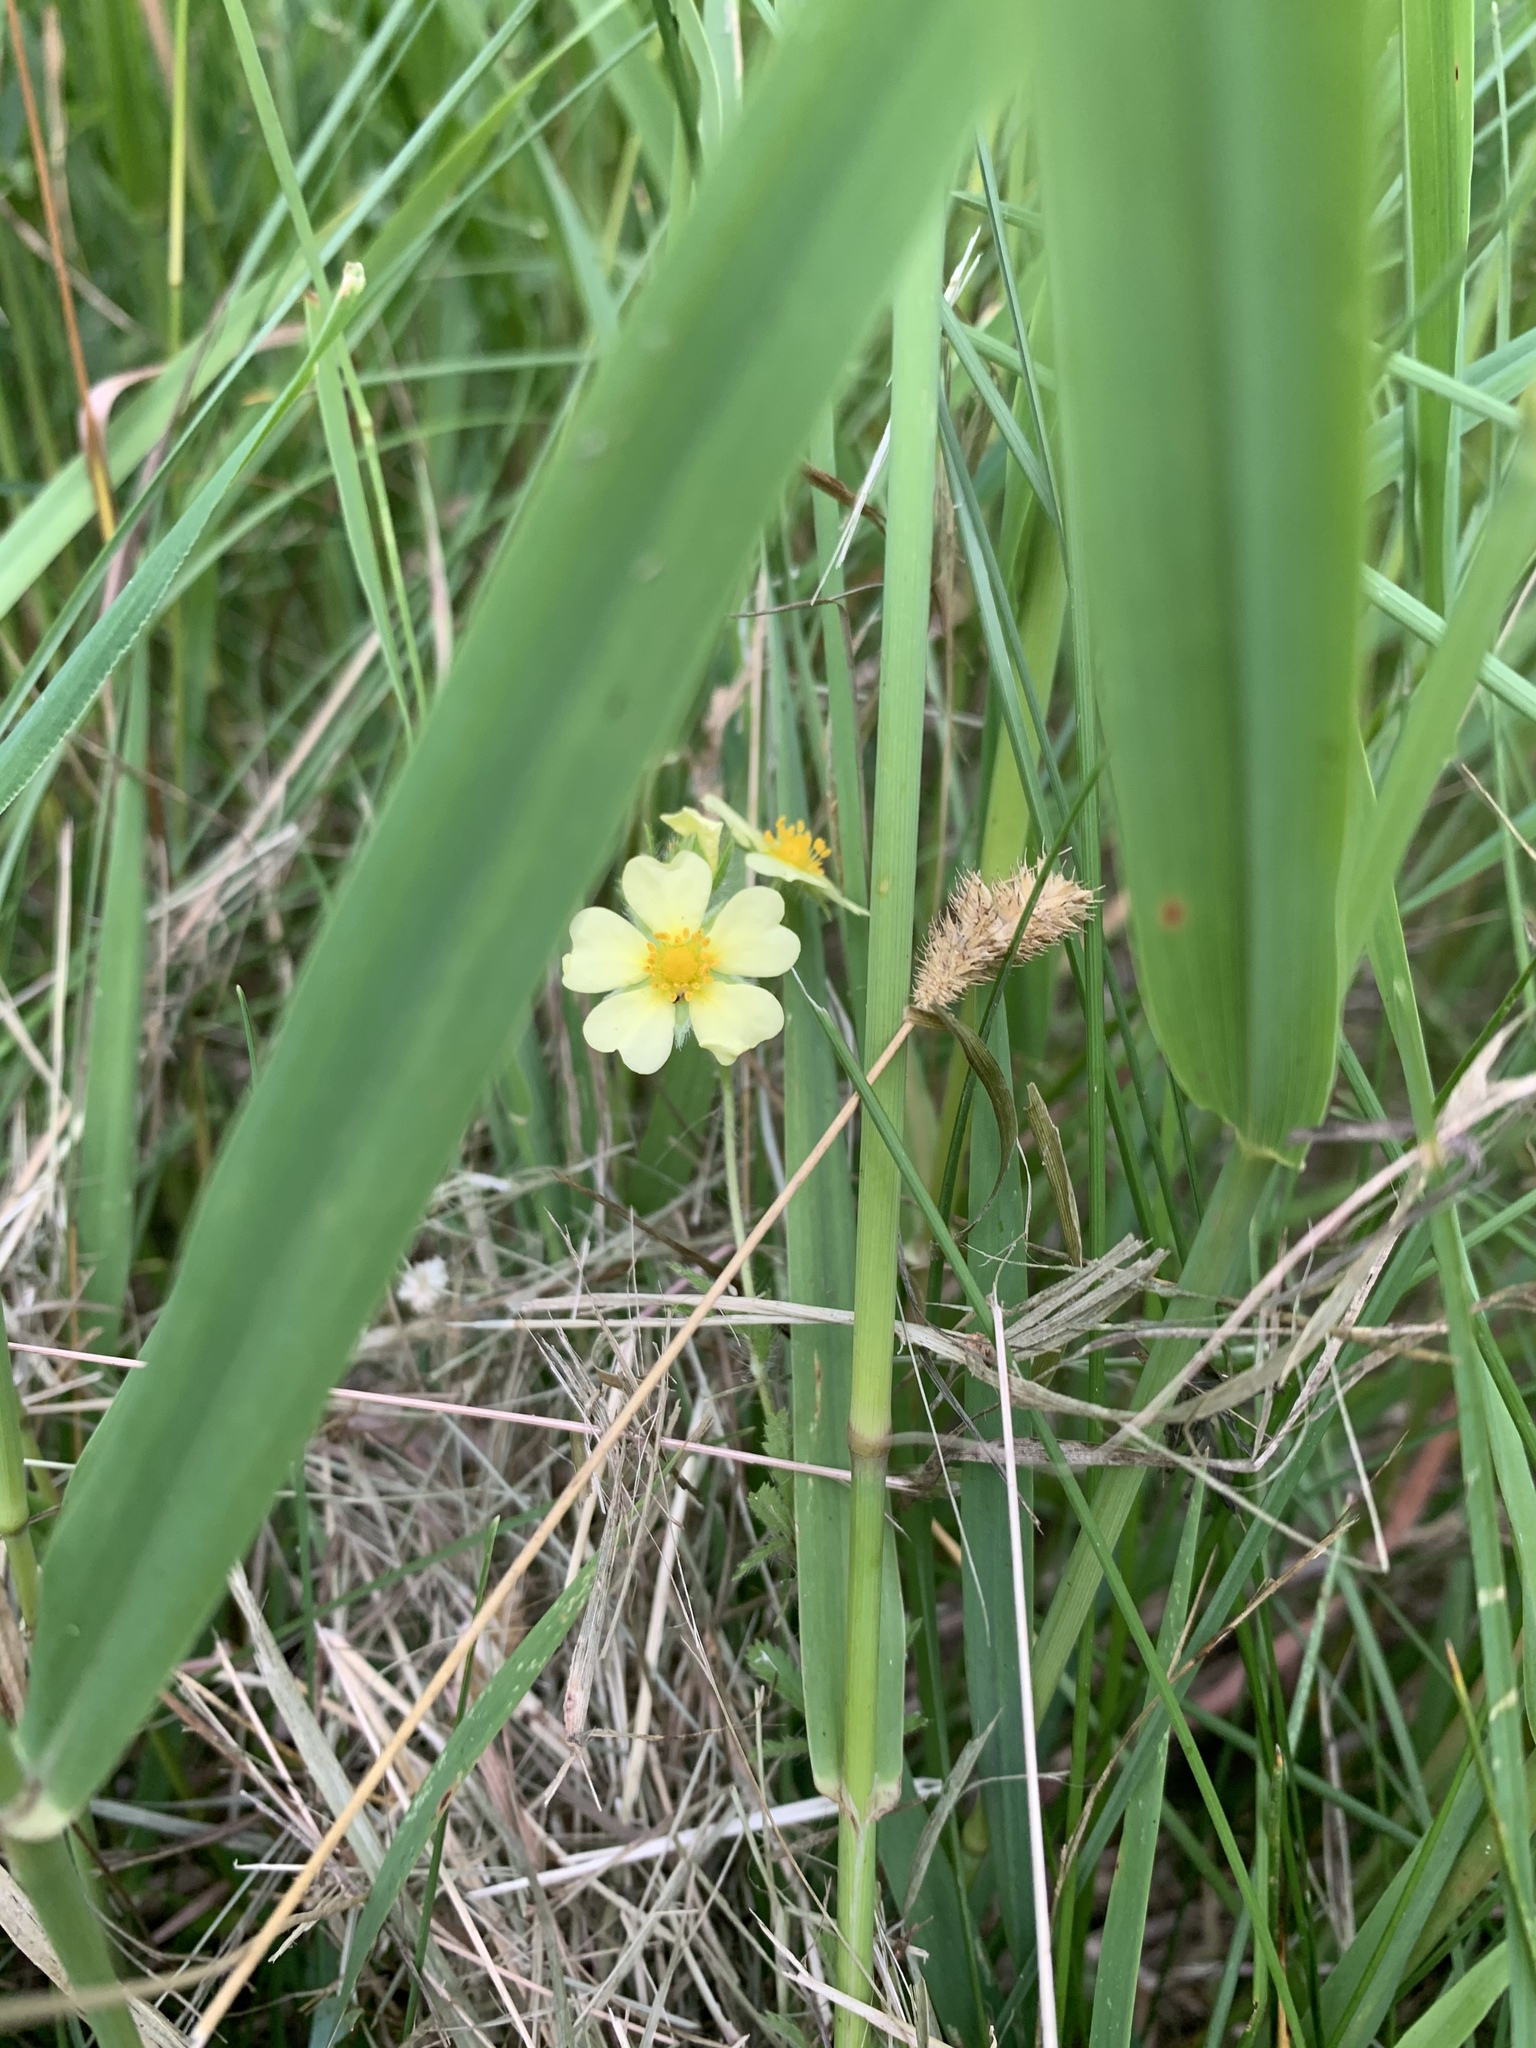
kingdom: Plantae
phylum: Tracheophyta
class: Magnoliopsida
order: Rosales
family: Rosaceae
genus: Potentilla
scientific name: Potentilla recta
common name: Sulphur cinquefoil
